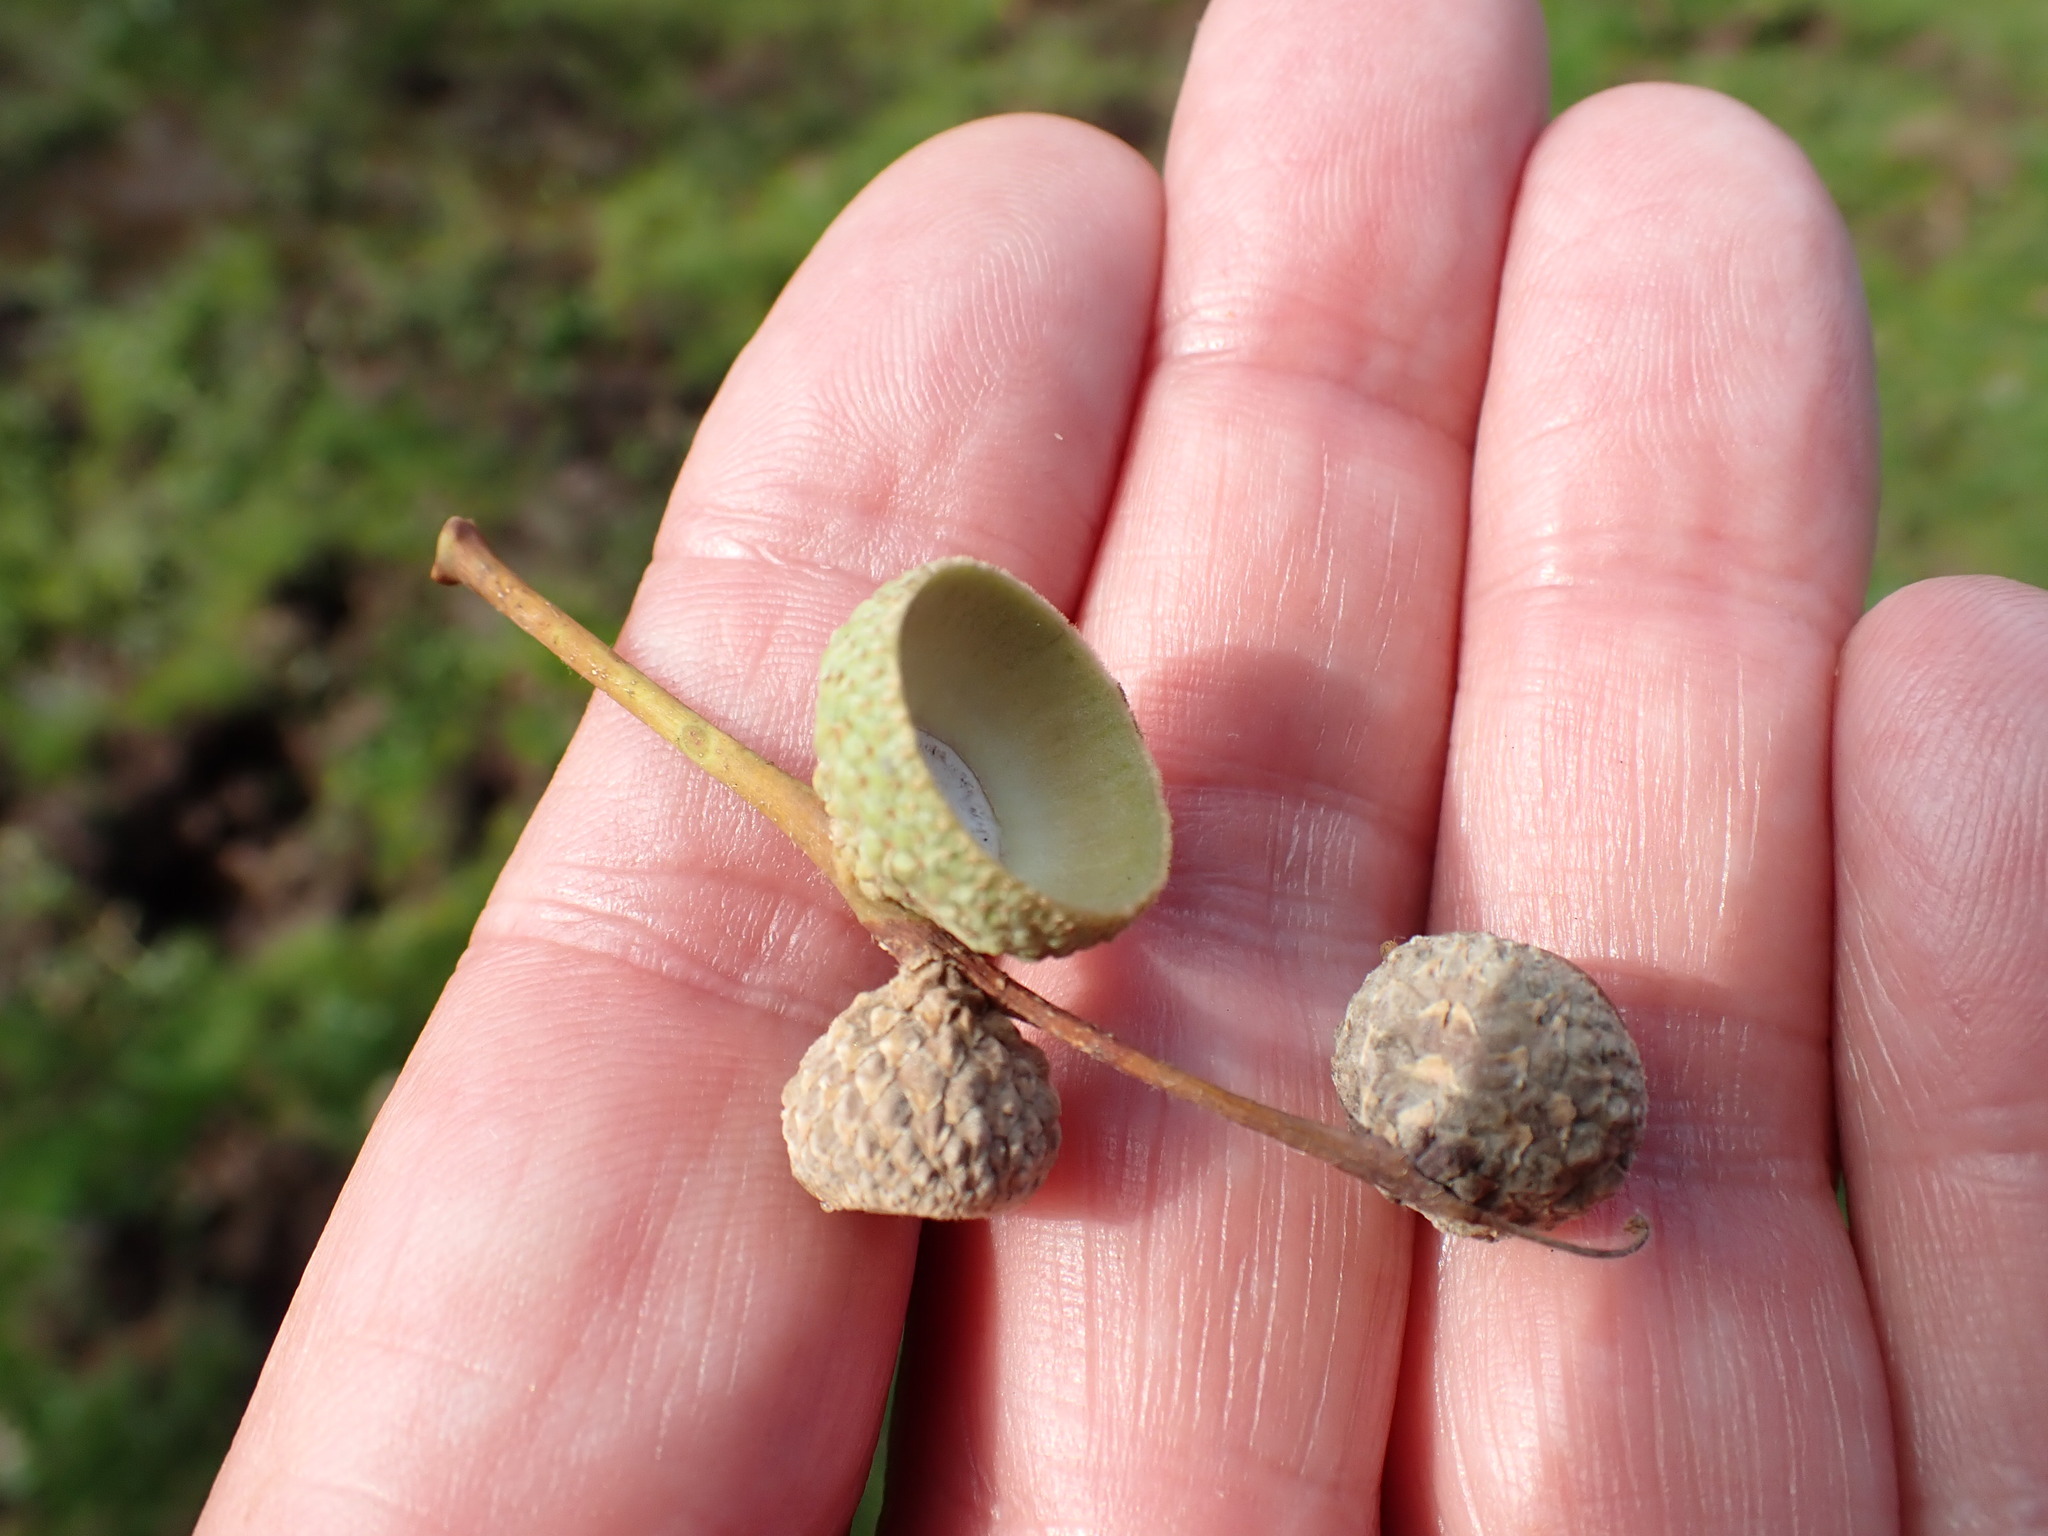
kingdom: Plantae
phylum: Tracheophyta
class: Magnoliopsida
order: Fagales
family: Fagaceae
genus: Quercus
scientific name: Quercus robur
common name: Pedunculate oak
